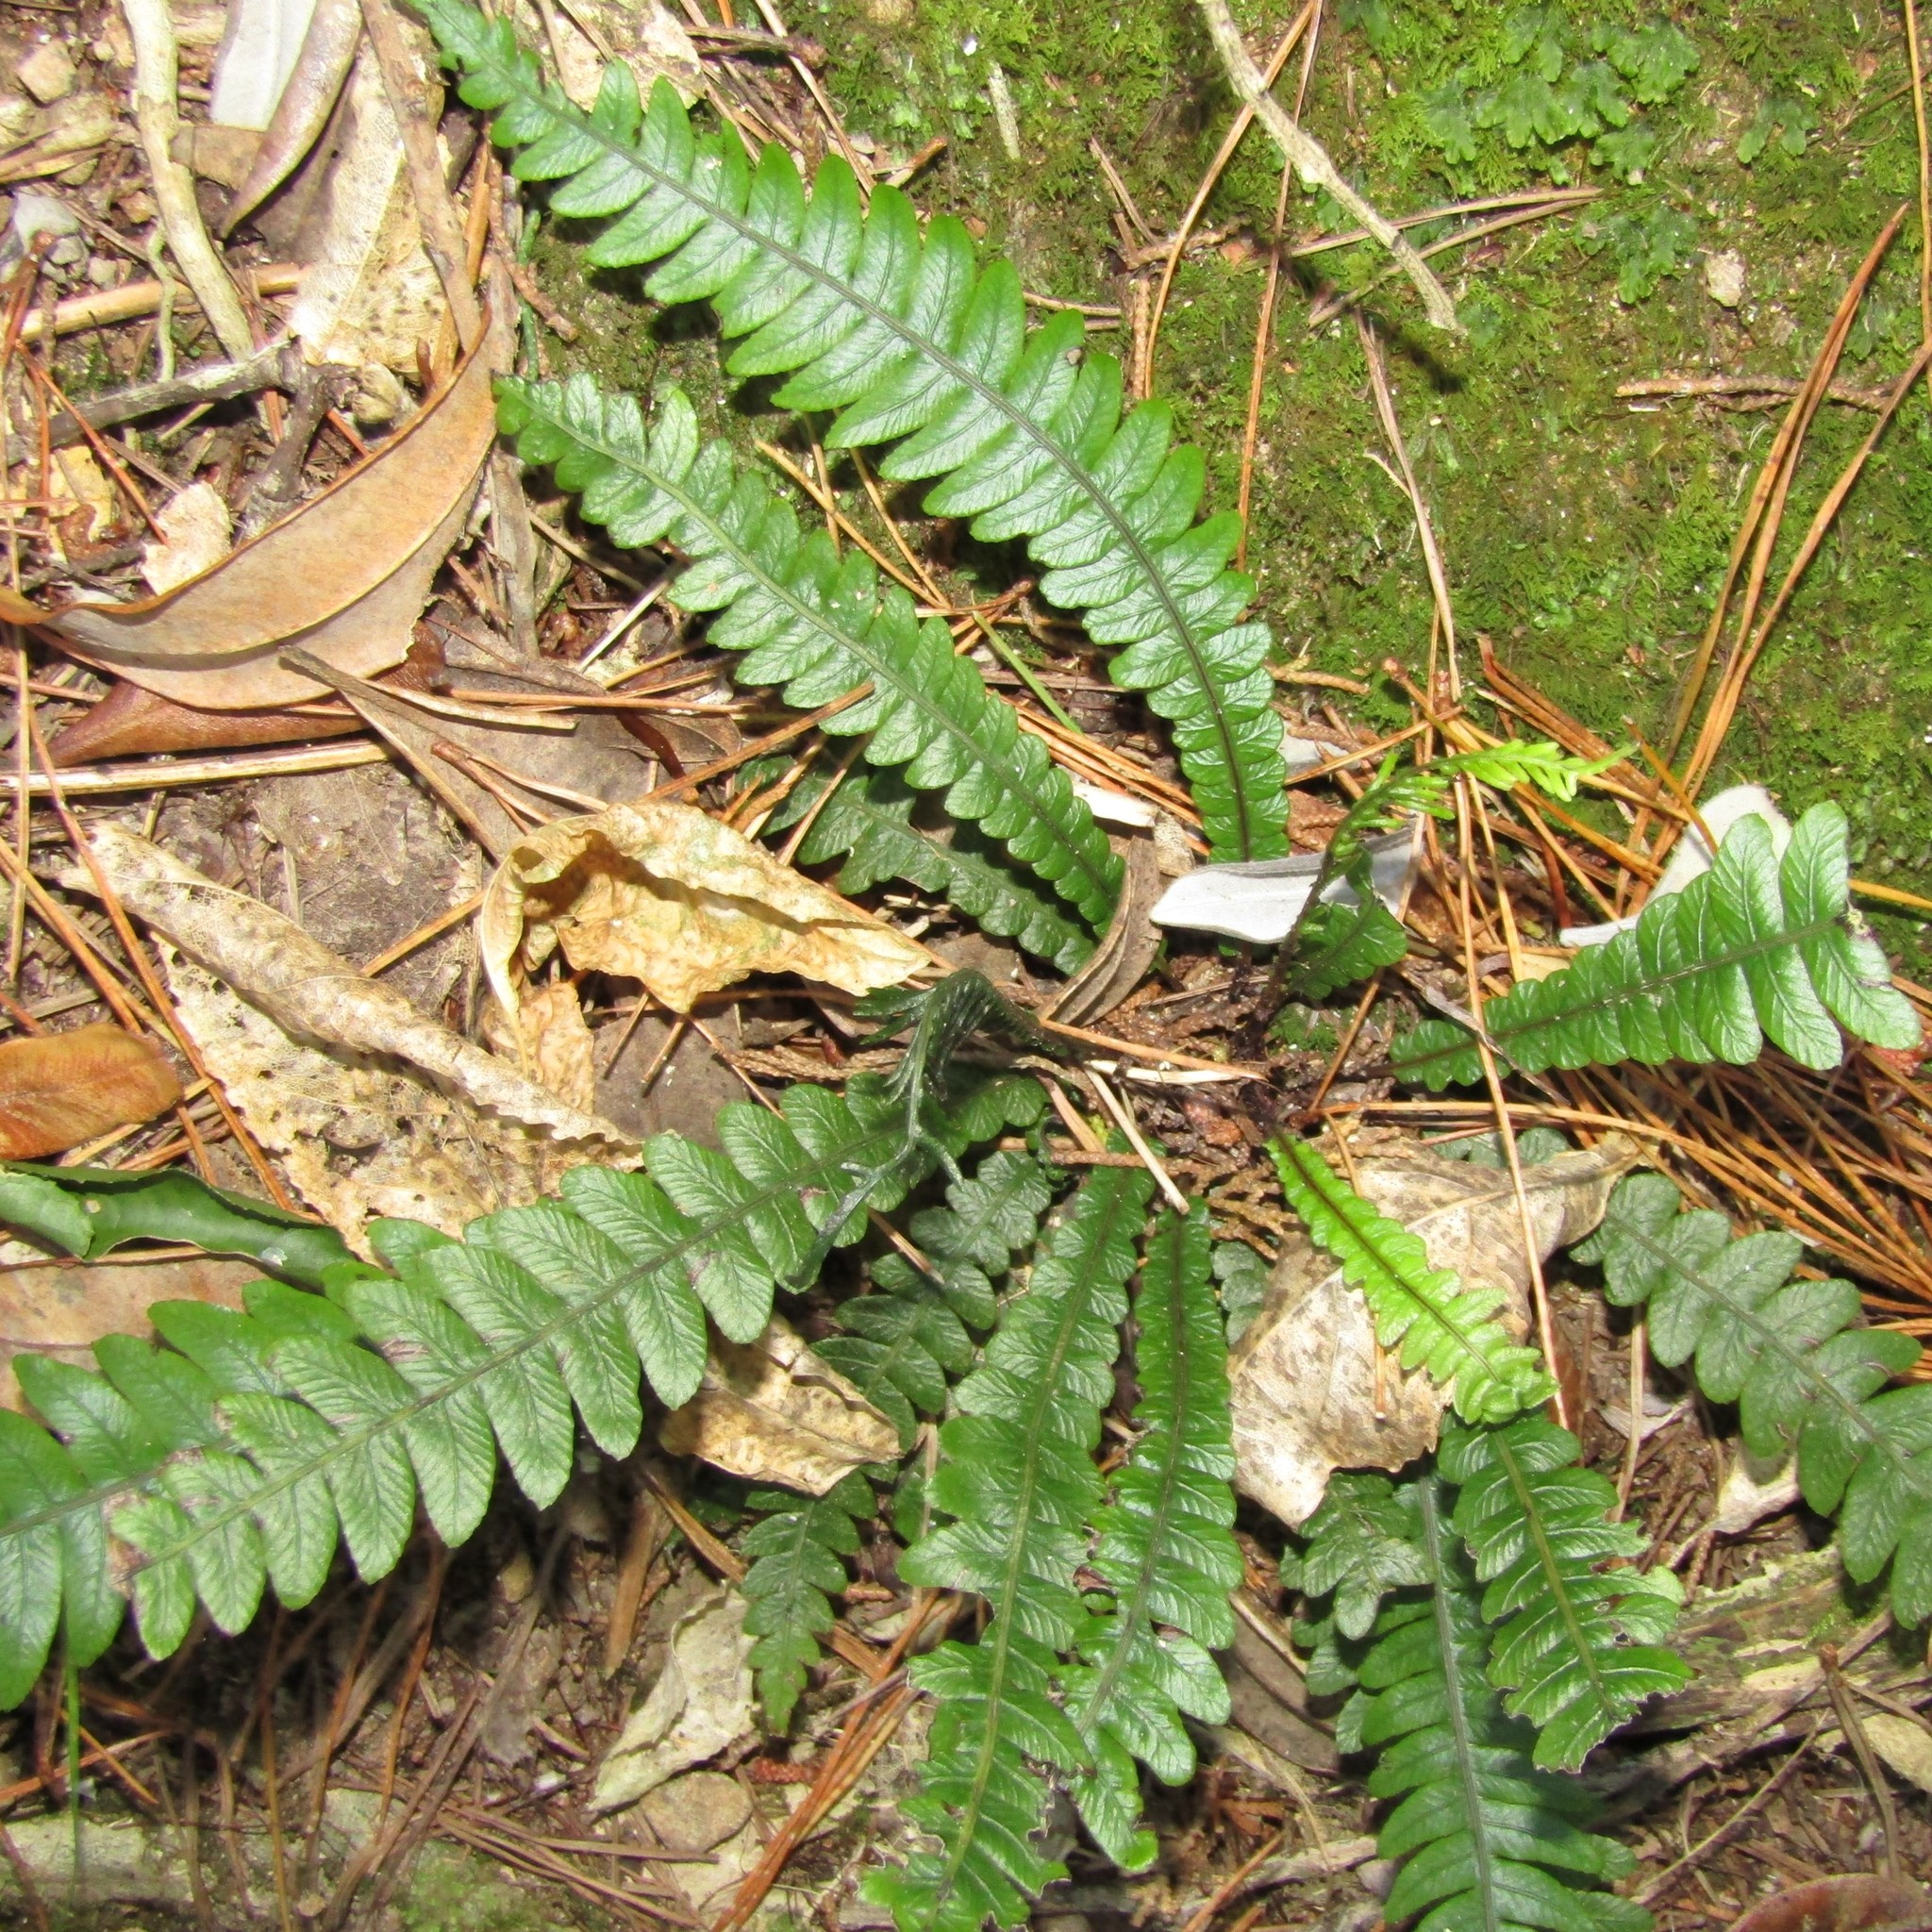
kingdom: Plantae
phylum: Tracheophyta
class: Polypodiopsida
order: Polypodiales
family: Blechnaceae
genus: Austroblechnum
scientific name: Austroblechnum lanceolatum
